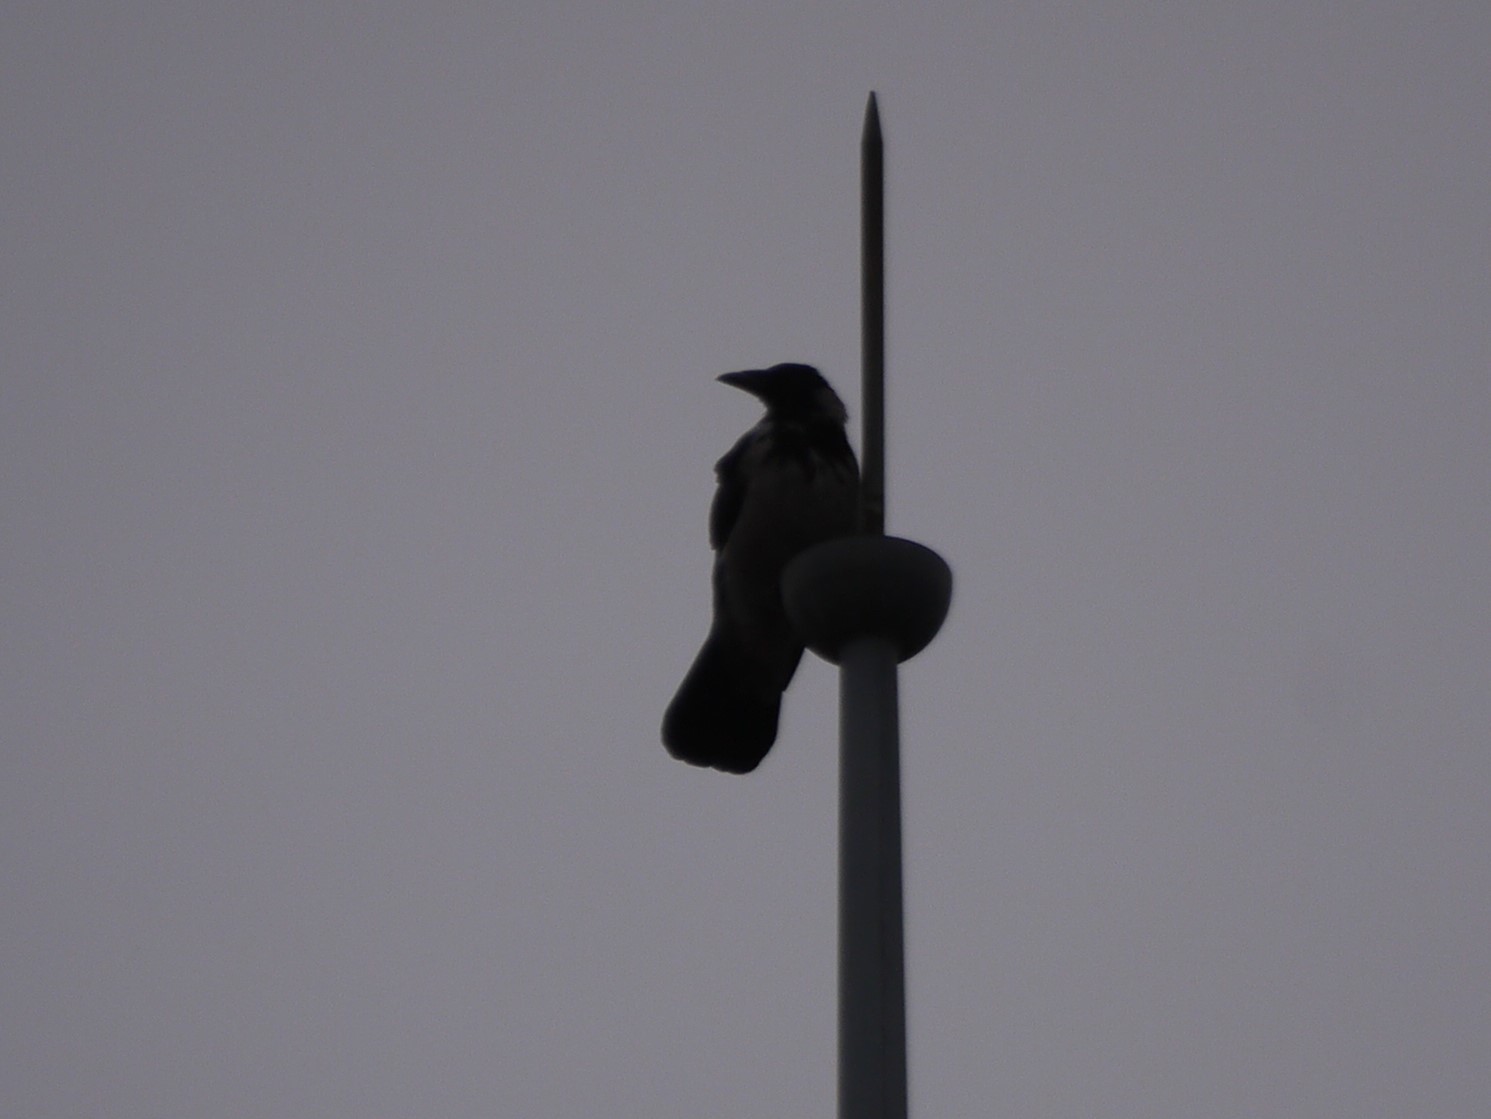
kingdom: Animalia
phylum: Chordata
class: Aves
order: Passeriformes
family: Corvidae
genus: Corvus
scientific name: Corvus cornix
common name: Hooded crow
